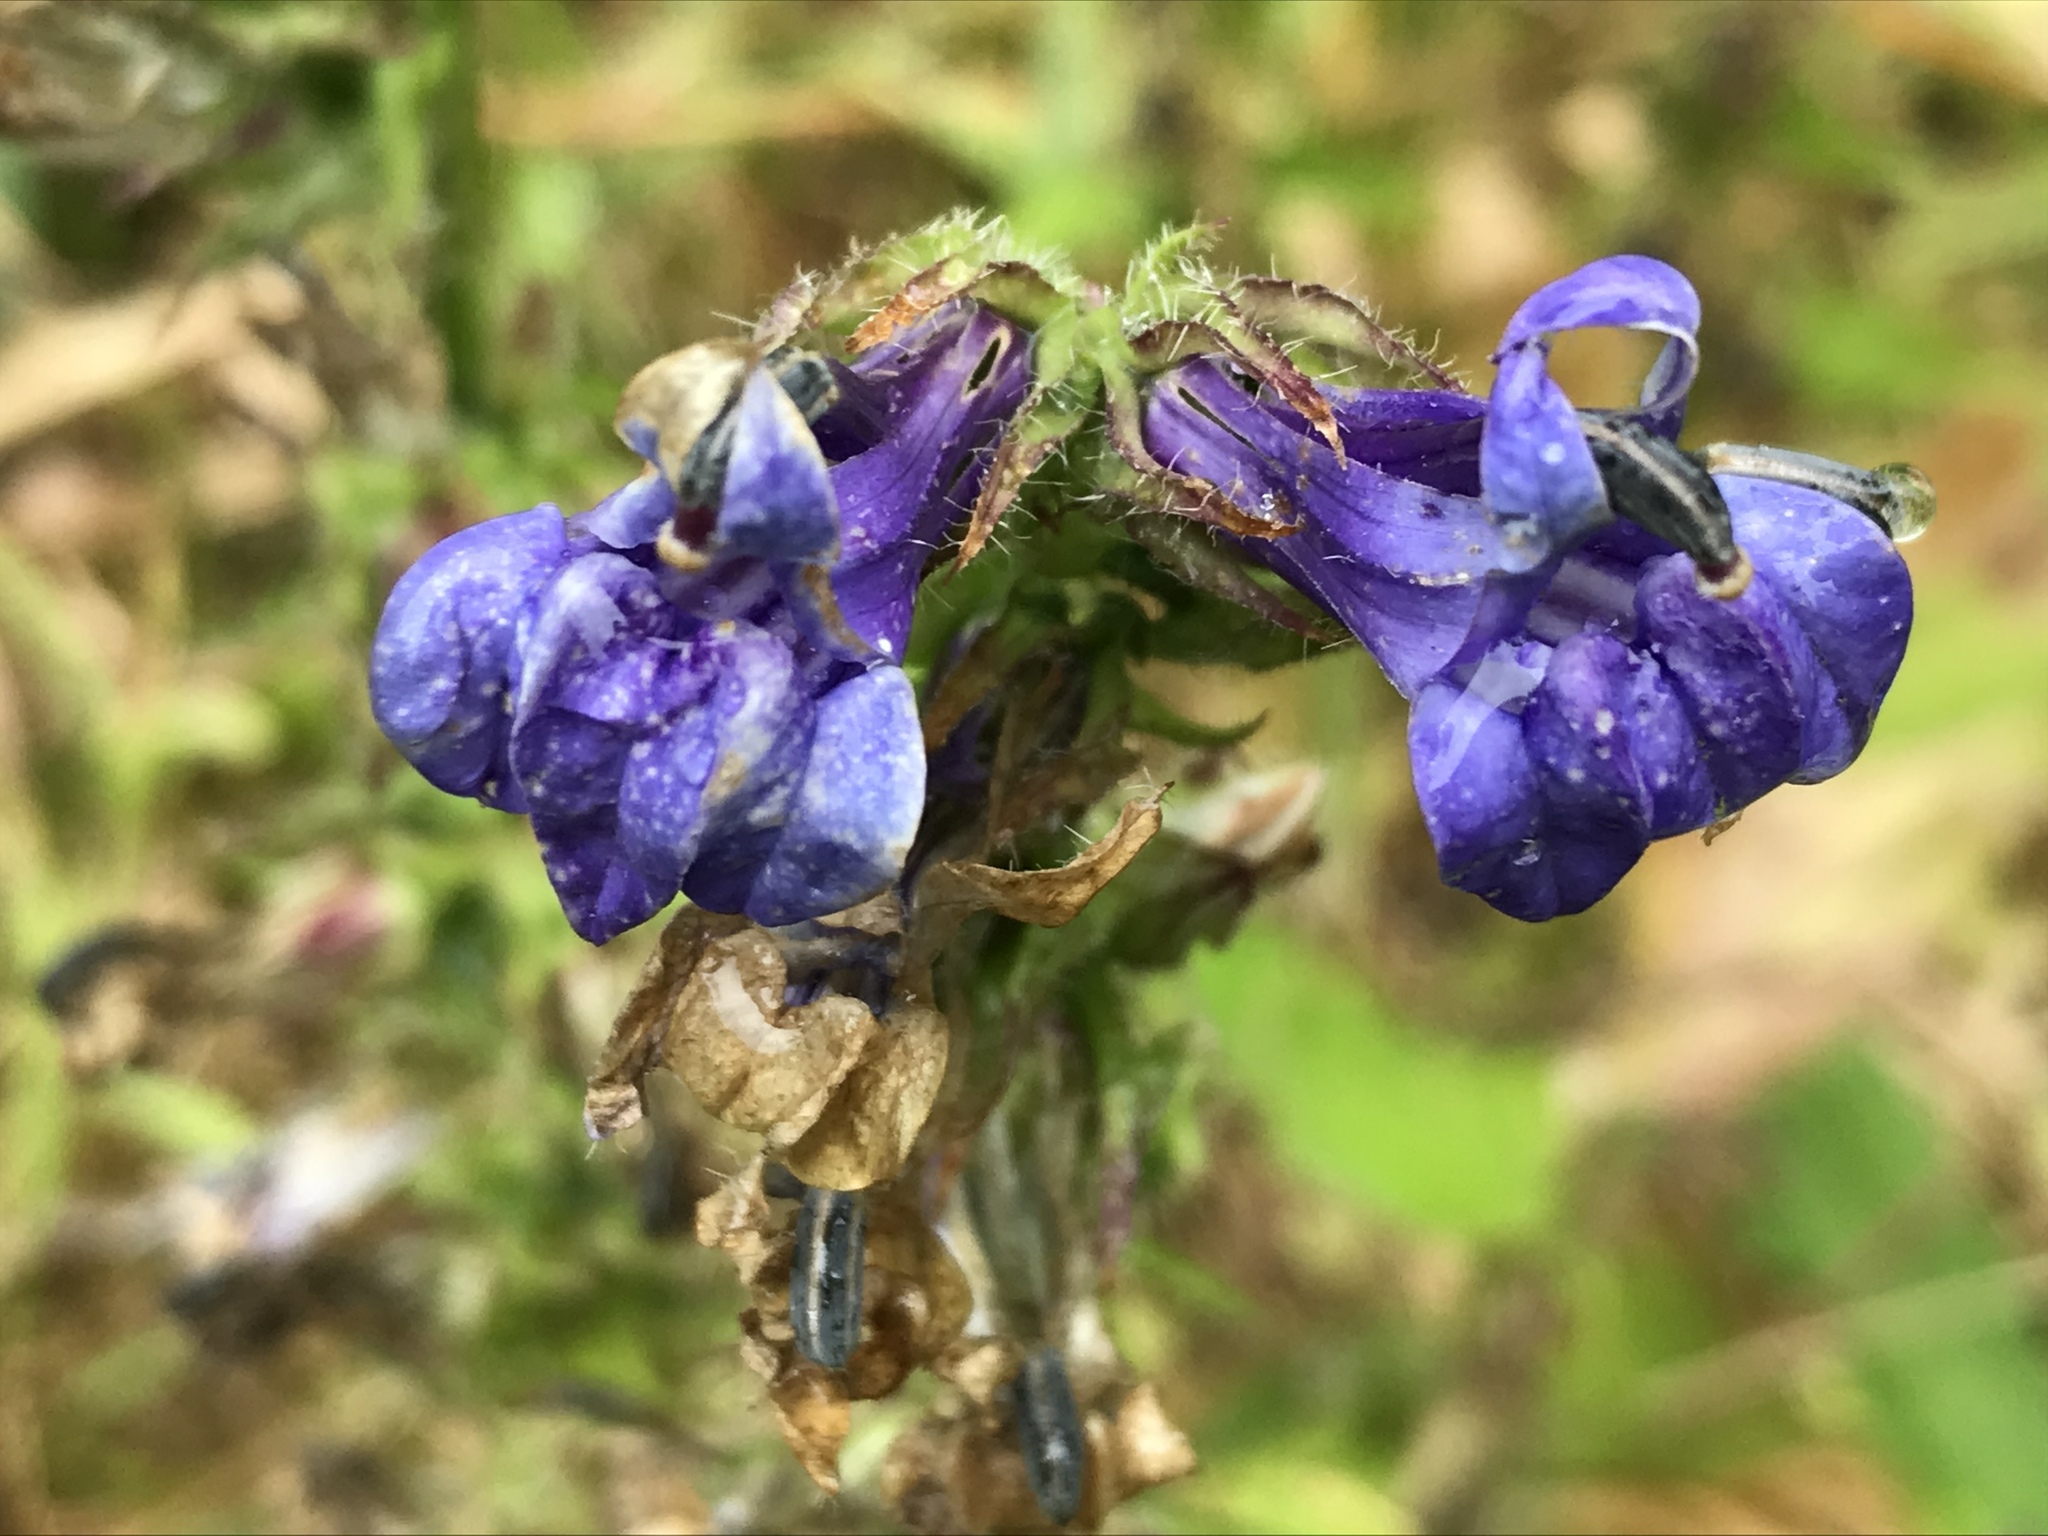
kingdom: Plantae
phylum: Tracheophyta
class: Magnoliopsida
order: Asterales
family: Campanulaceae
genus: Lobelia
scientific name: Lobelia siphilitica
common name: Great lobelia
